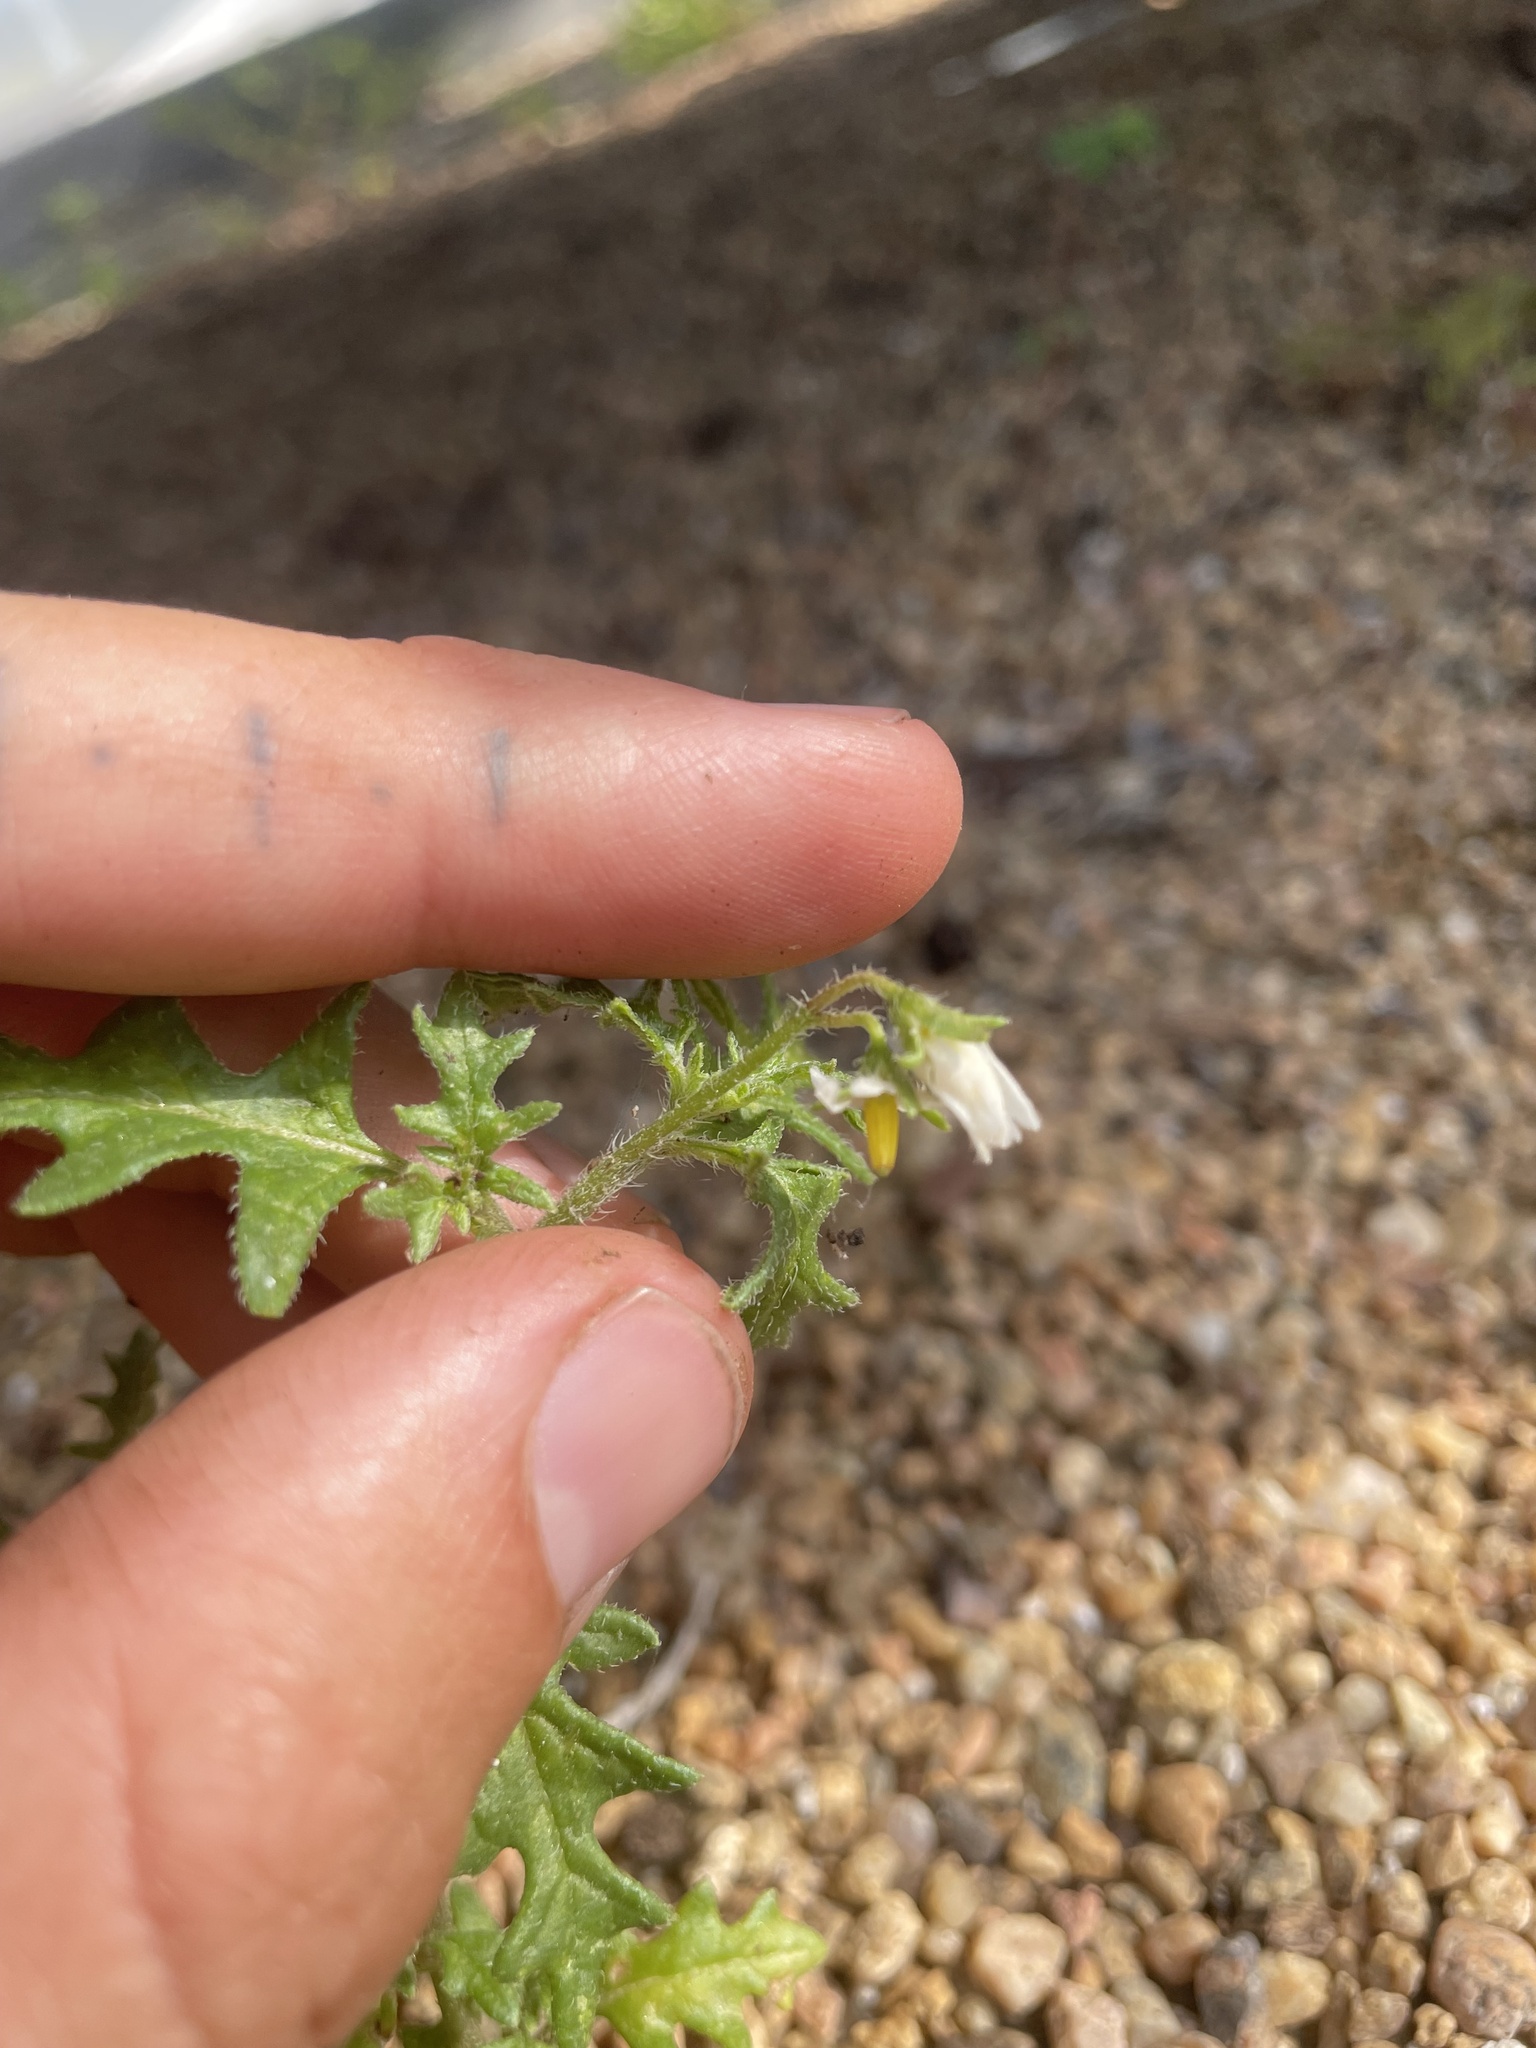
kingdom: Plantae
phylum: Tracheophyta
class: Magnoliopsida
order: Solanales
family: Solanaceae
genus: Solanum
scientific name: Solanum triflorum
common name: Small nightshade
